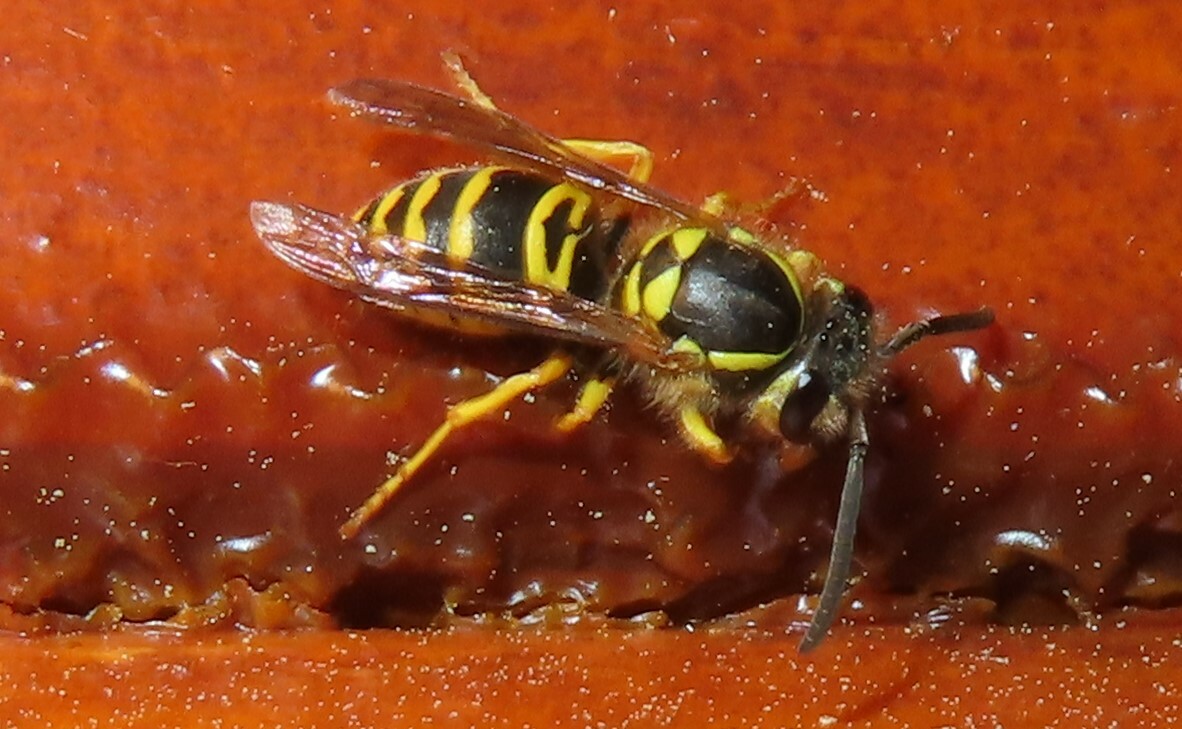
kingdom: Animalia
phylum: Arthropoda
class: Insecta
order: Hymenoptera
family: Vespidae
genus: Vespula
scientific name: Vespula maculifrons
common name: Eastern yellowjacket
